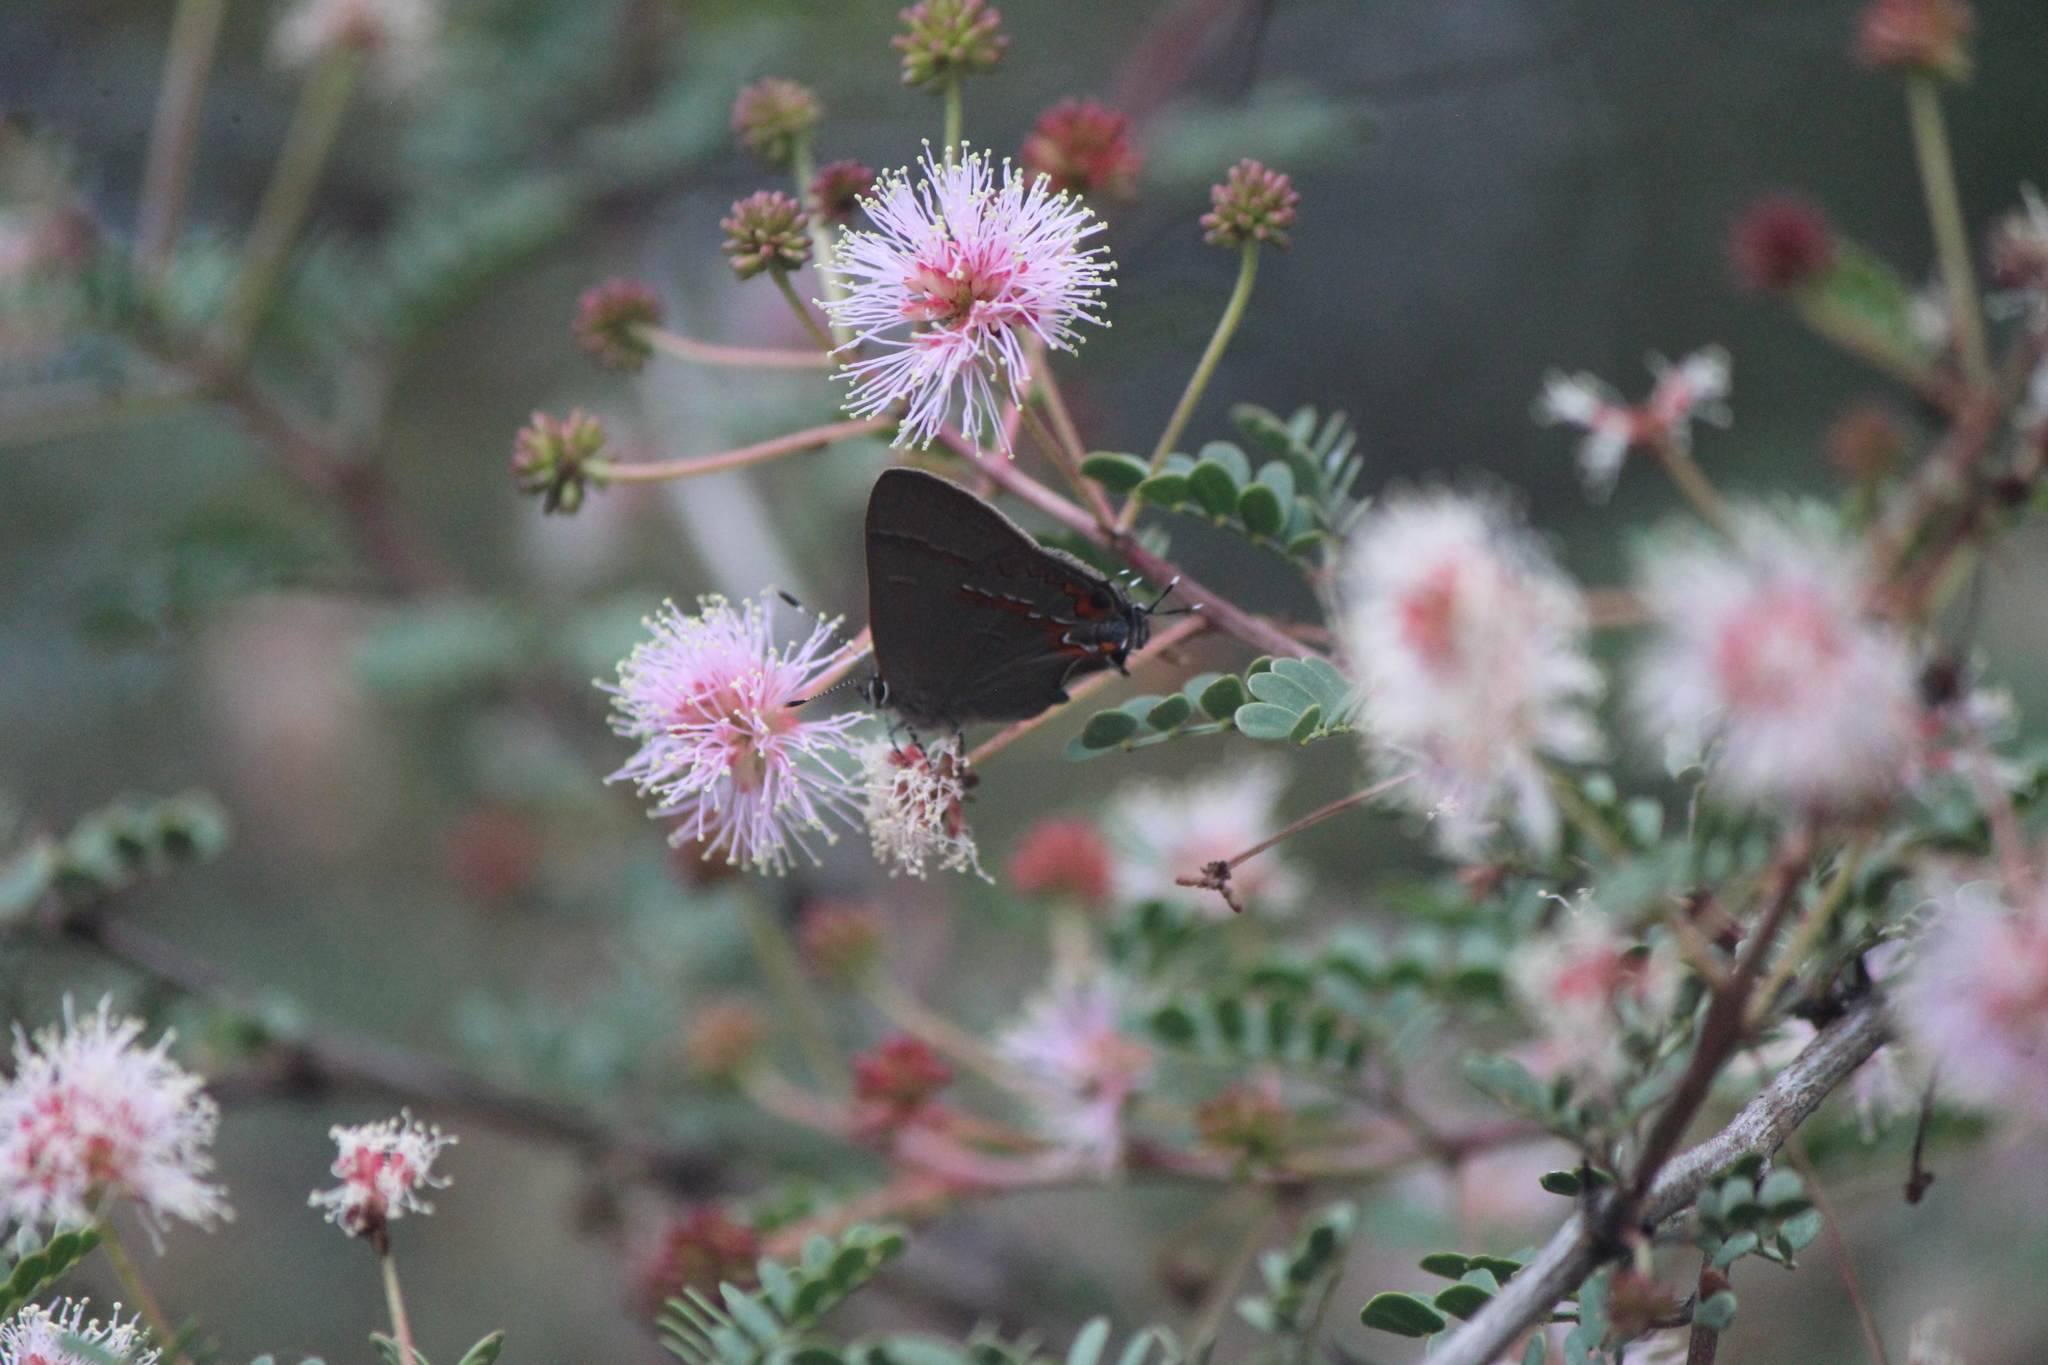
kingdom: Animalia
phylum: Arthropoda
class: Insecta
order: Lepidoptera
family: Lycaenidae
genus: Electrostrymon
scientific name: Electrostrymon
